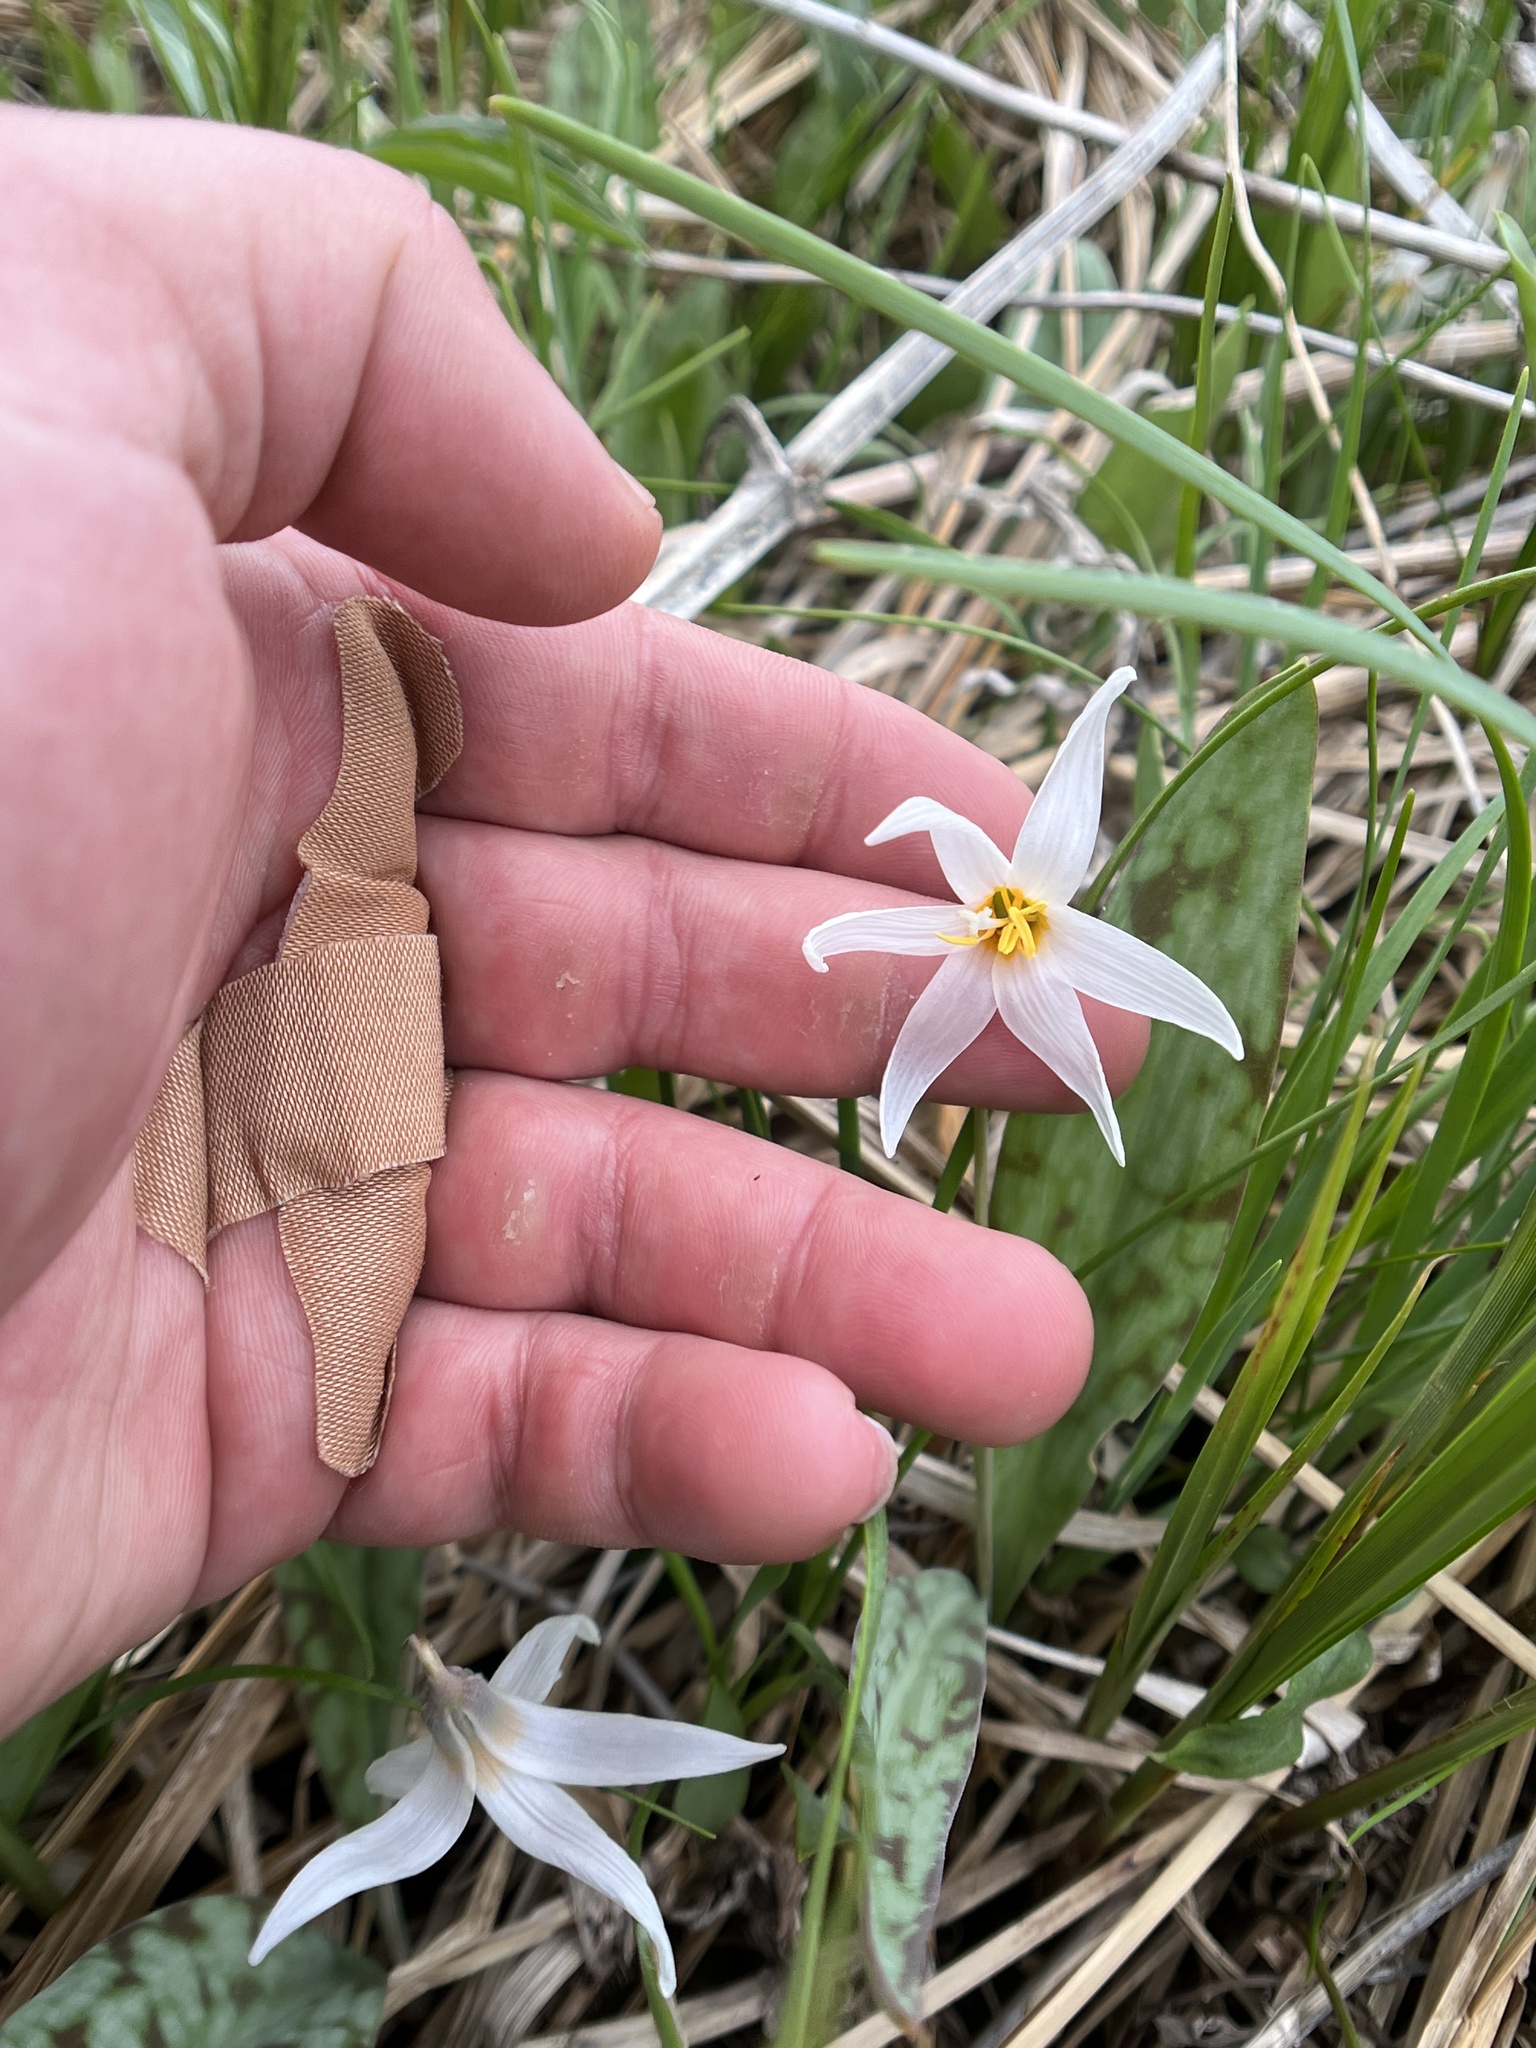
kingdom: Plantae
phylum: Tracheophyta
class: Liliopsida
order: Liliales
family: Liliaceae
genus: Erythronium
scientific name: Erythronium albidum
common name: White trout-lily
